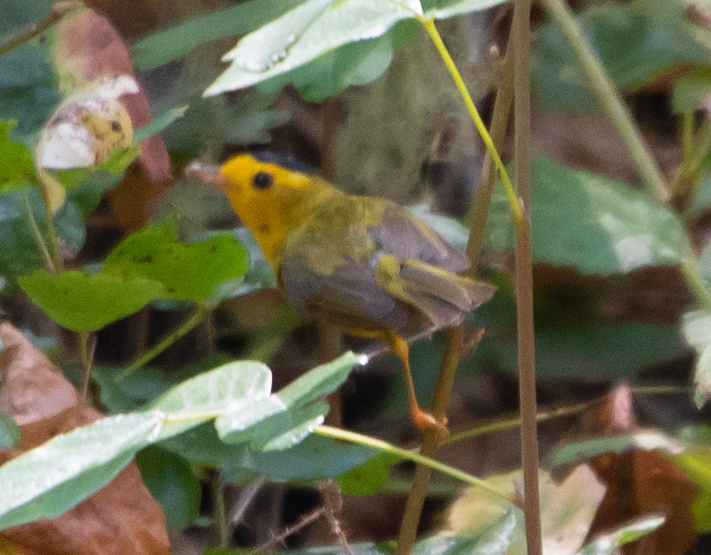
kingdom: Animalia
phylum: Chordata
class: Aves
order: Passeriformes
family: Parulidae
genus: Cardellina
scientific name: Cardellina pusilla
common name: Wilson's warbler
